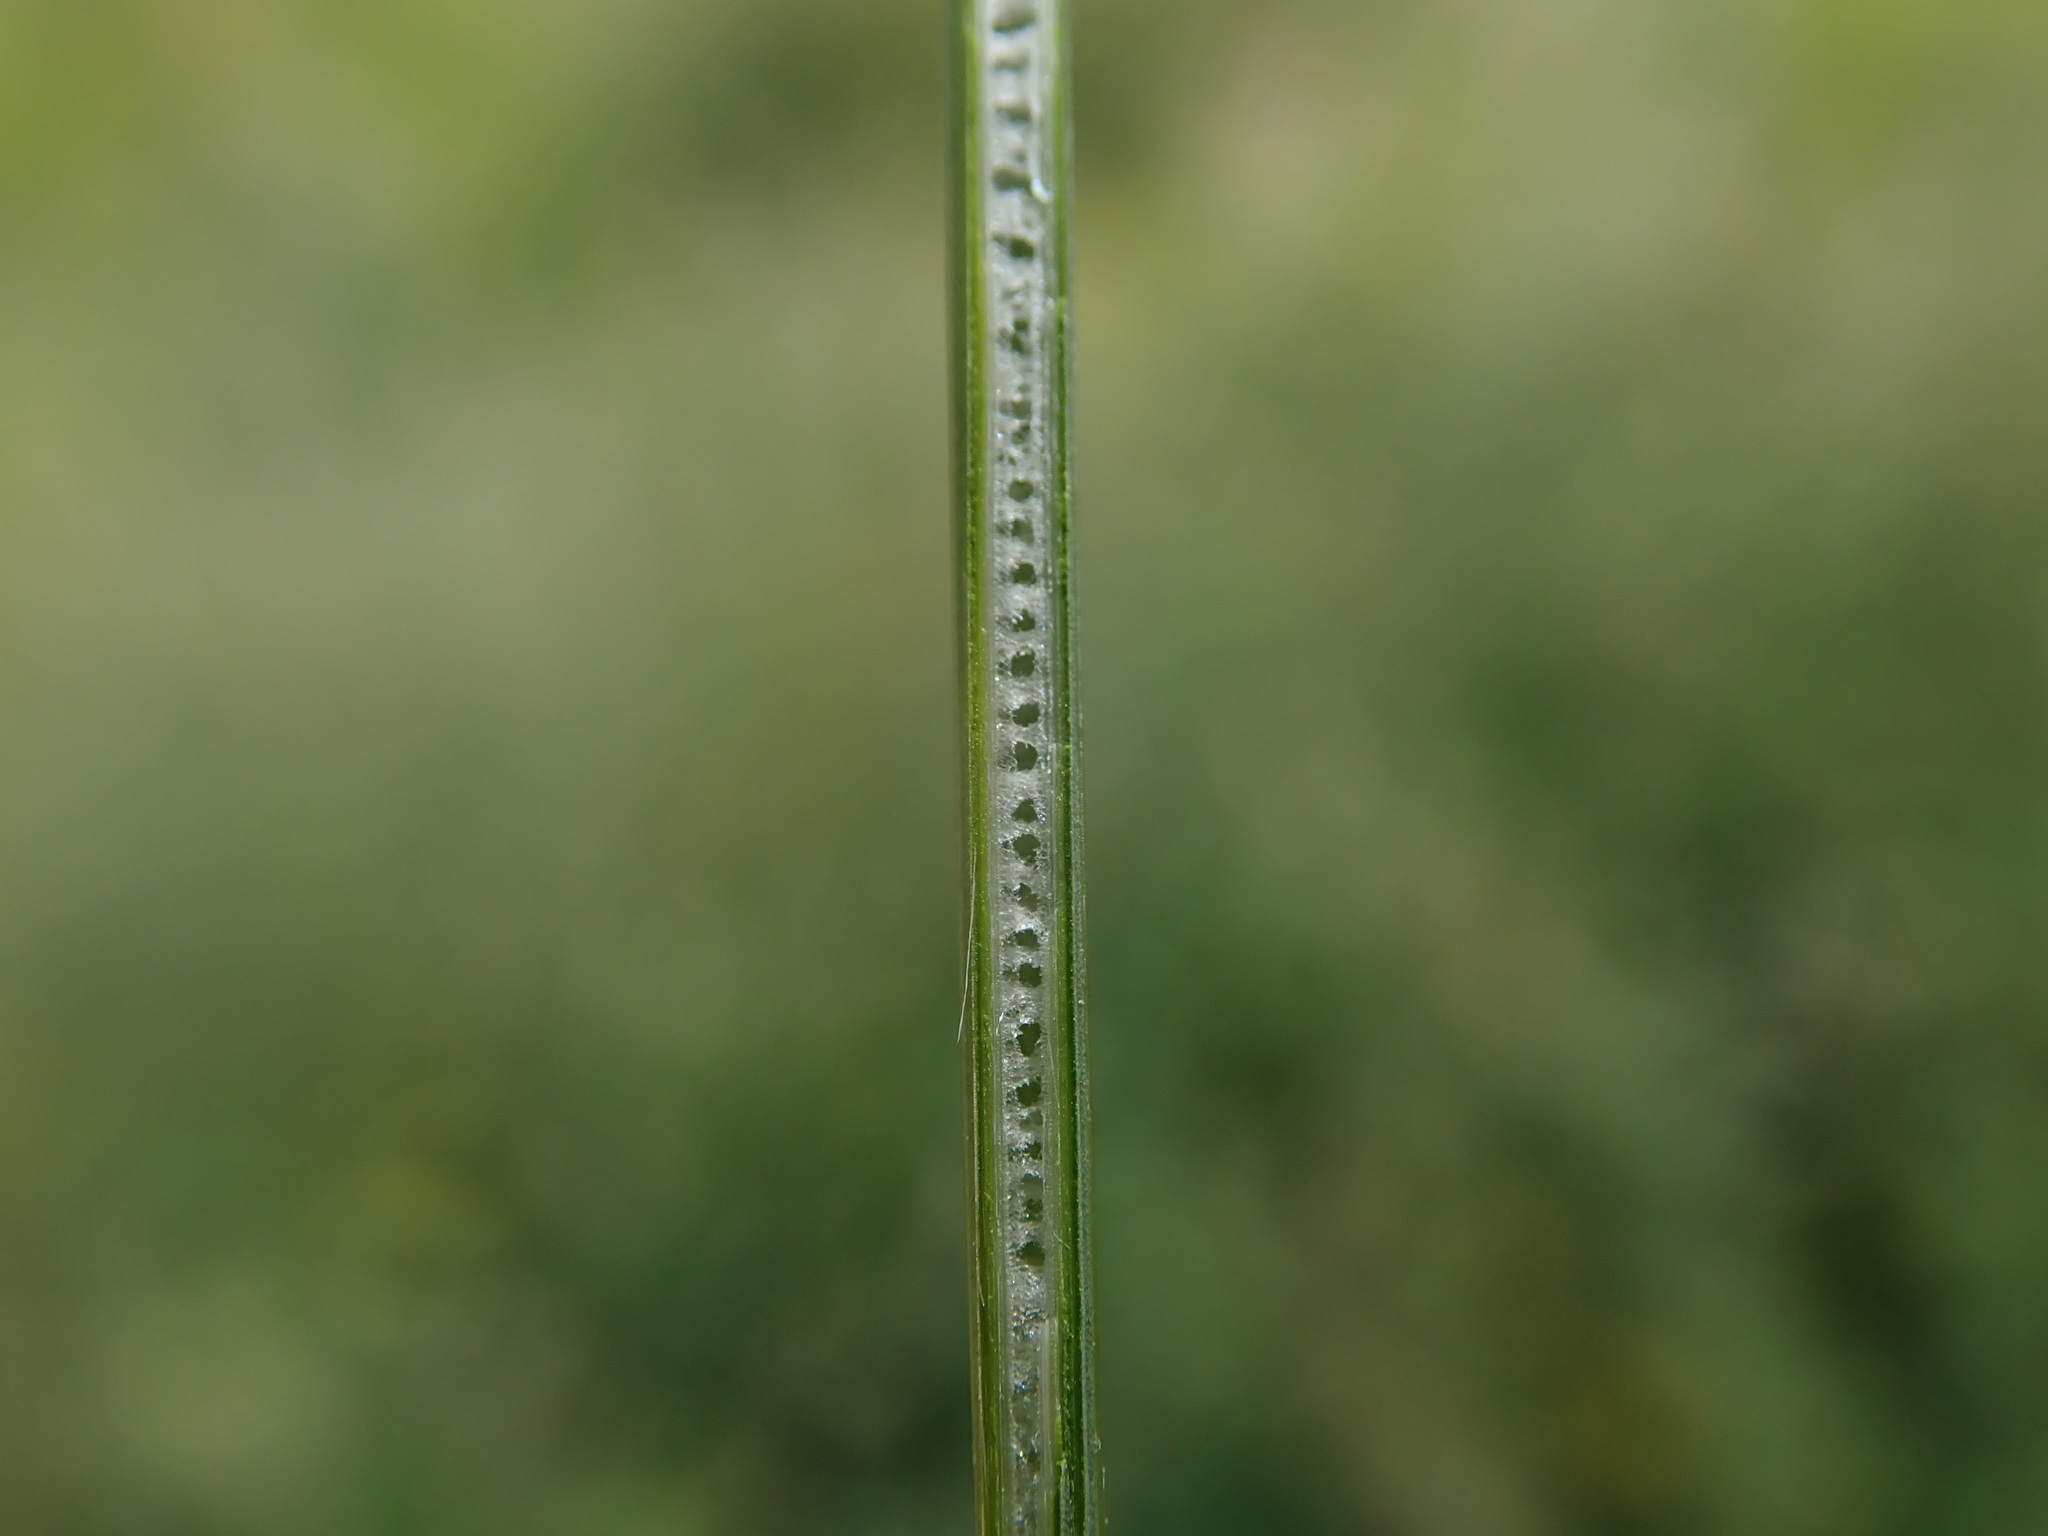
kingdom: Plantae
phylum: Tracheophyta
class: Liliopsida
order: Poales
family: Juncaceae
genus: Juncus
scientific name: Juncus inflexus
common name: Hard rush
